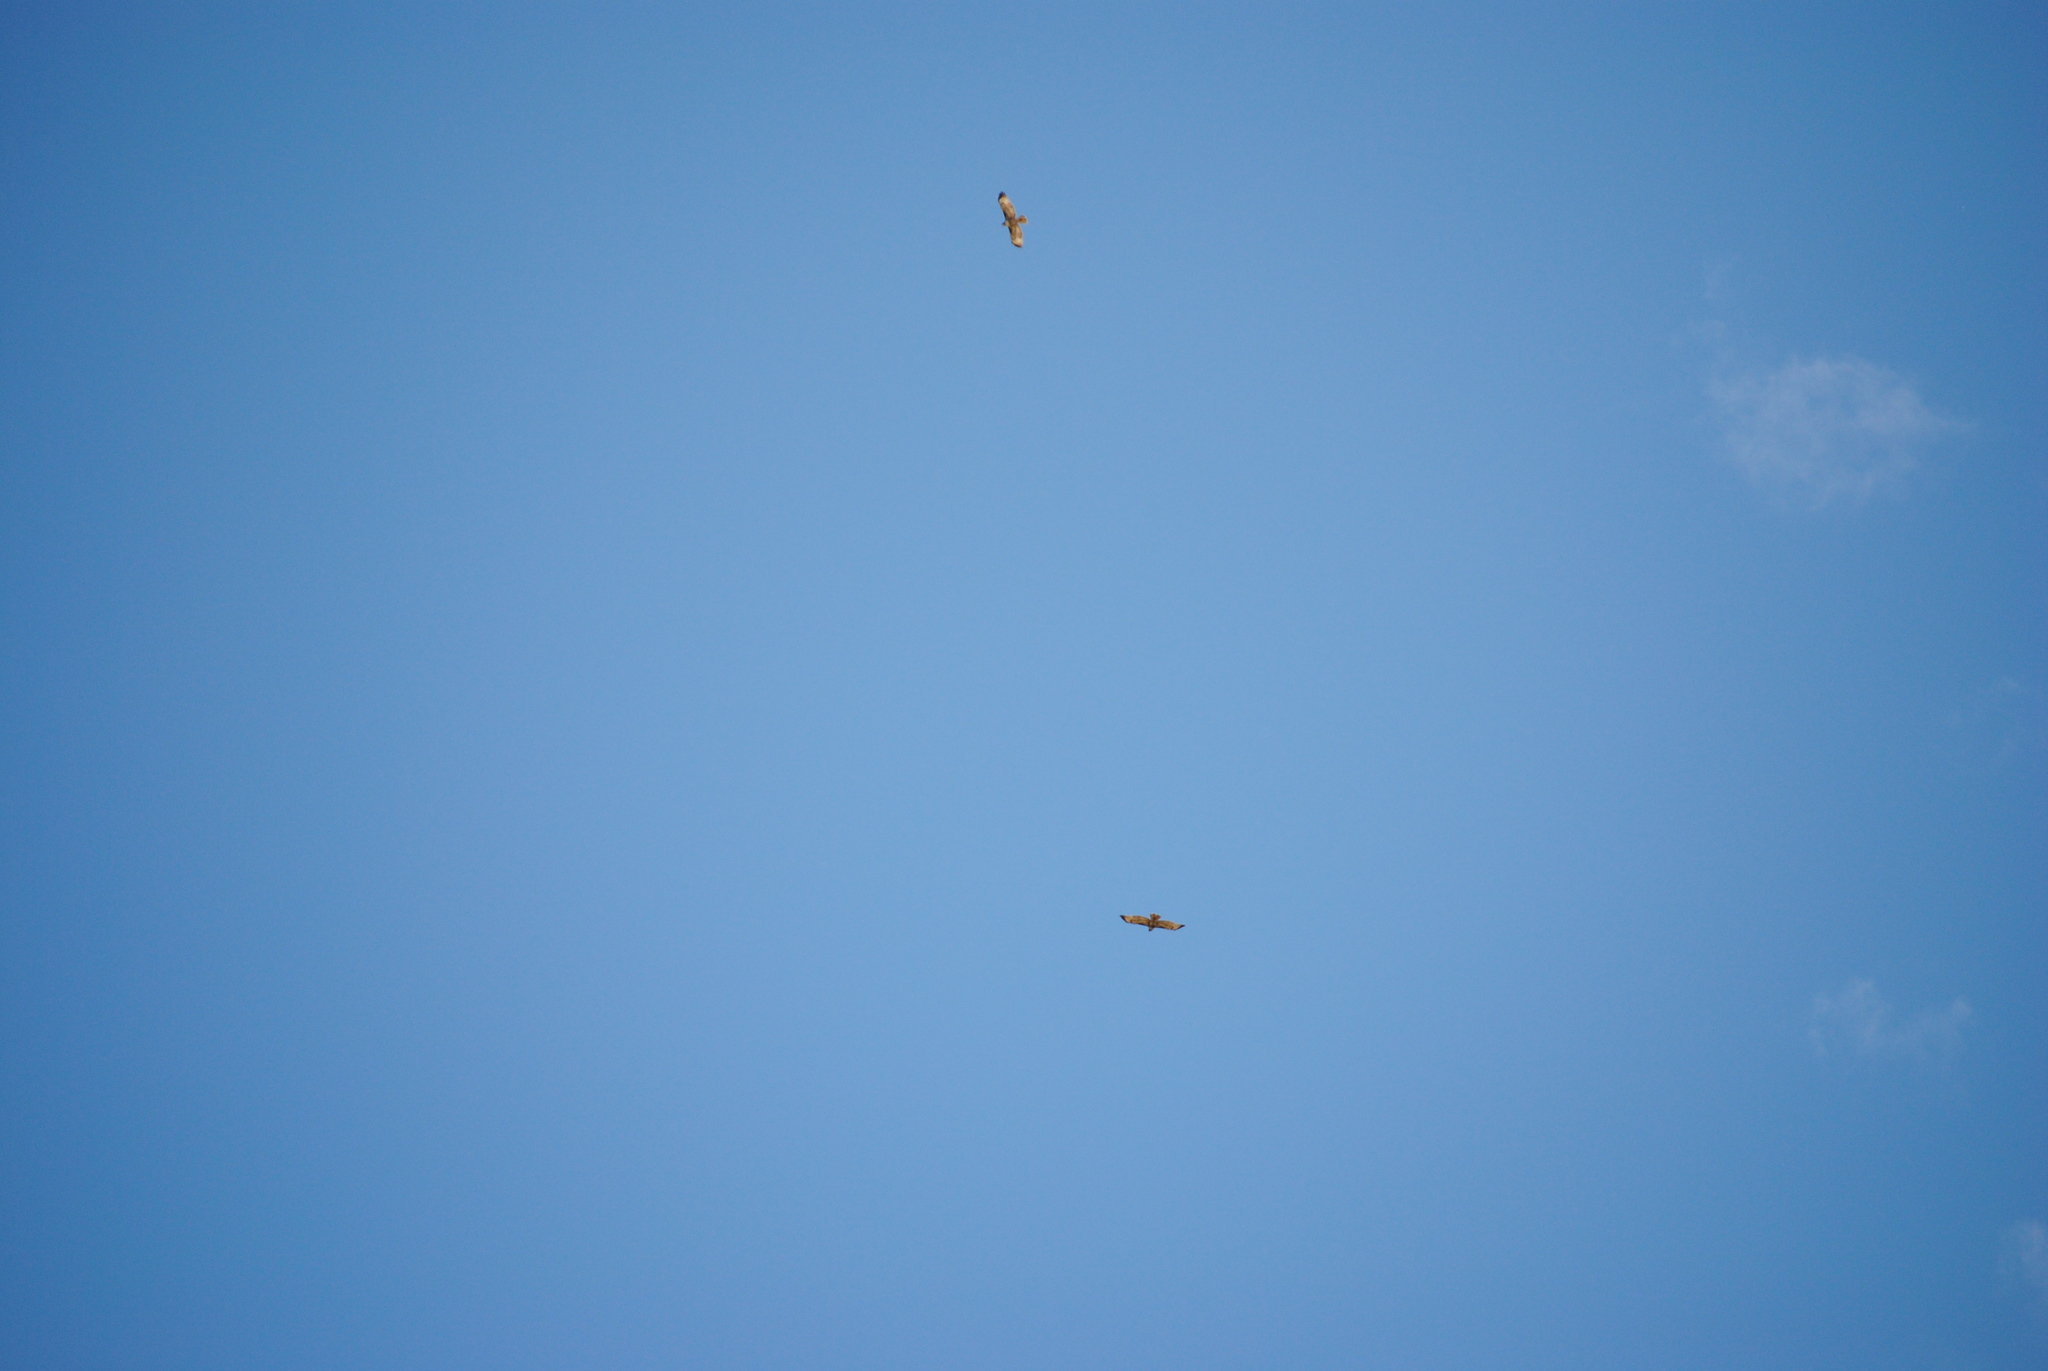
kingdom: Animalia
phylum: Chordata
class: Aves
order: Accipitriformes
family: Accipitridae
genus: Buteo
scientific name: Buteo jamaicensis
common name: Red-tailed hawk
